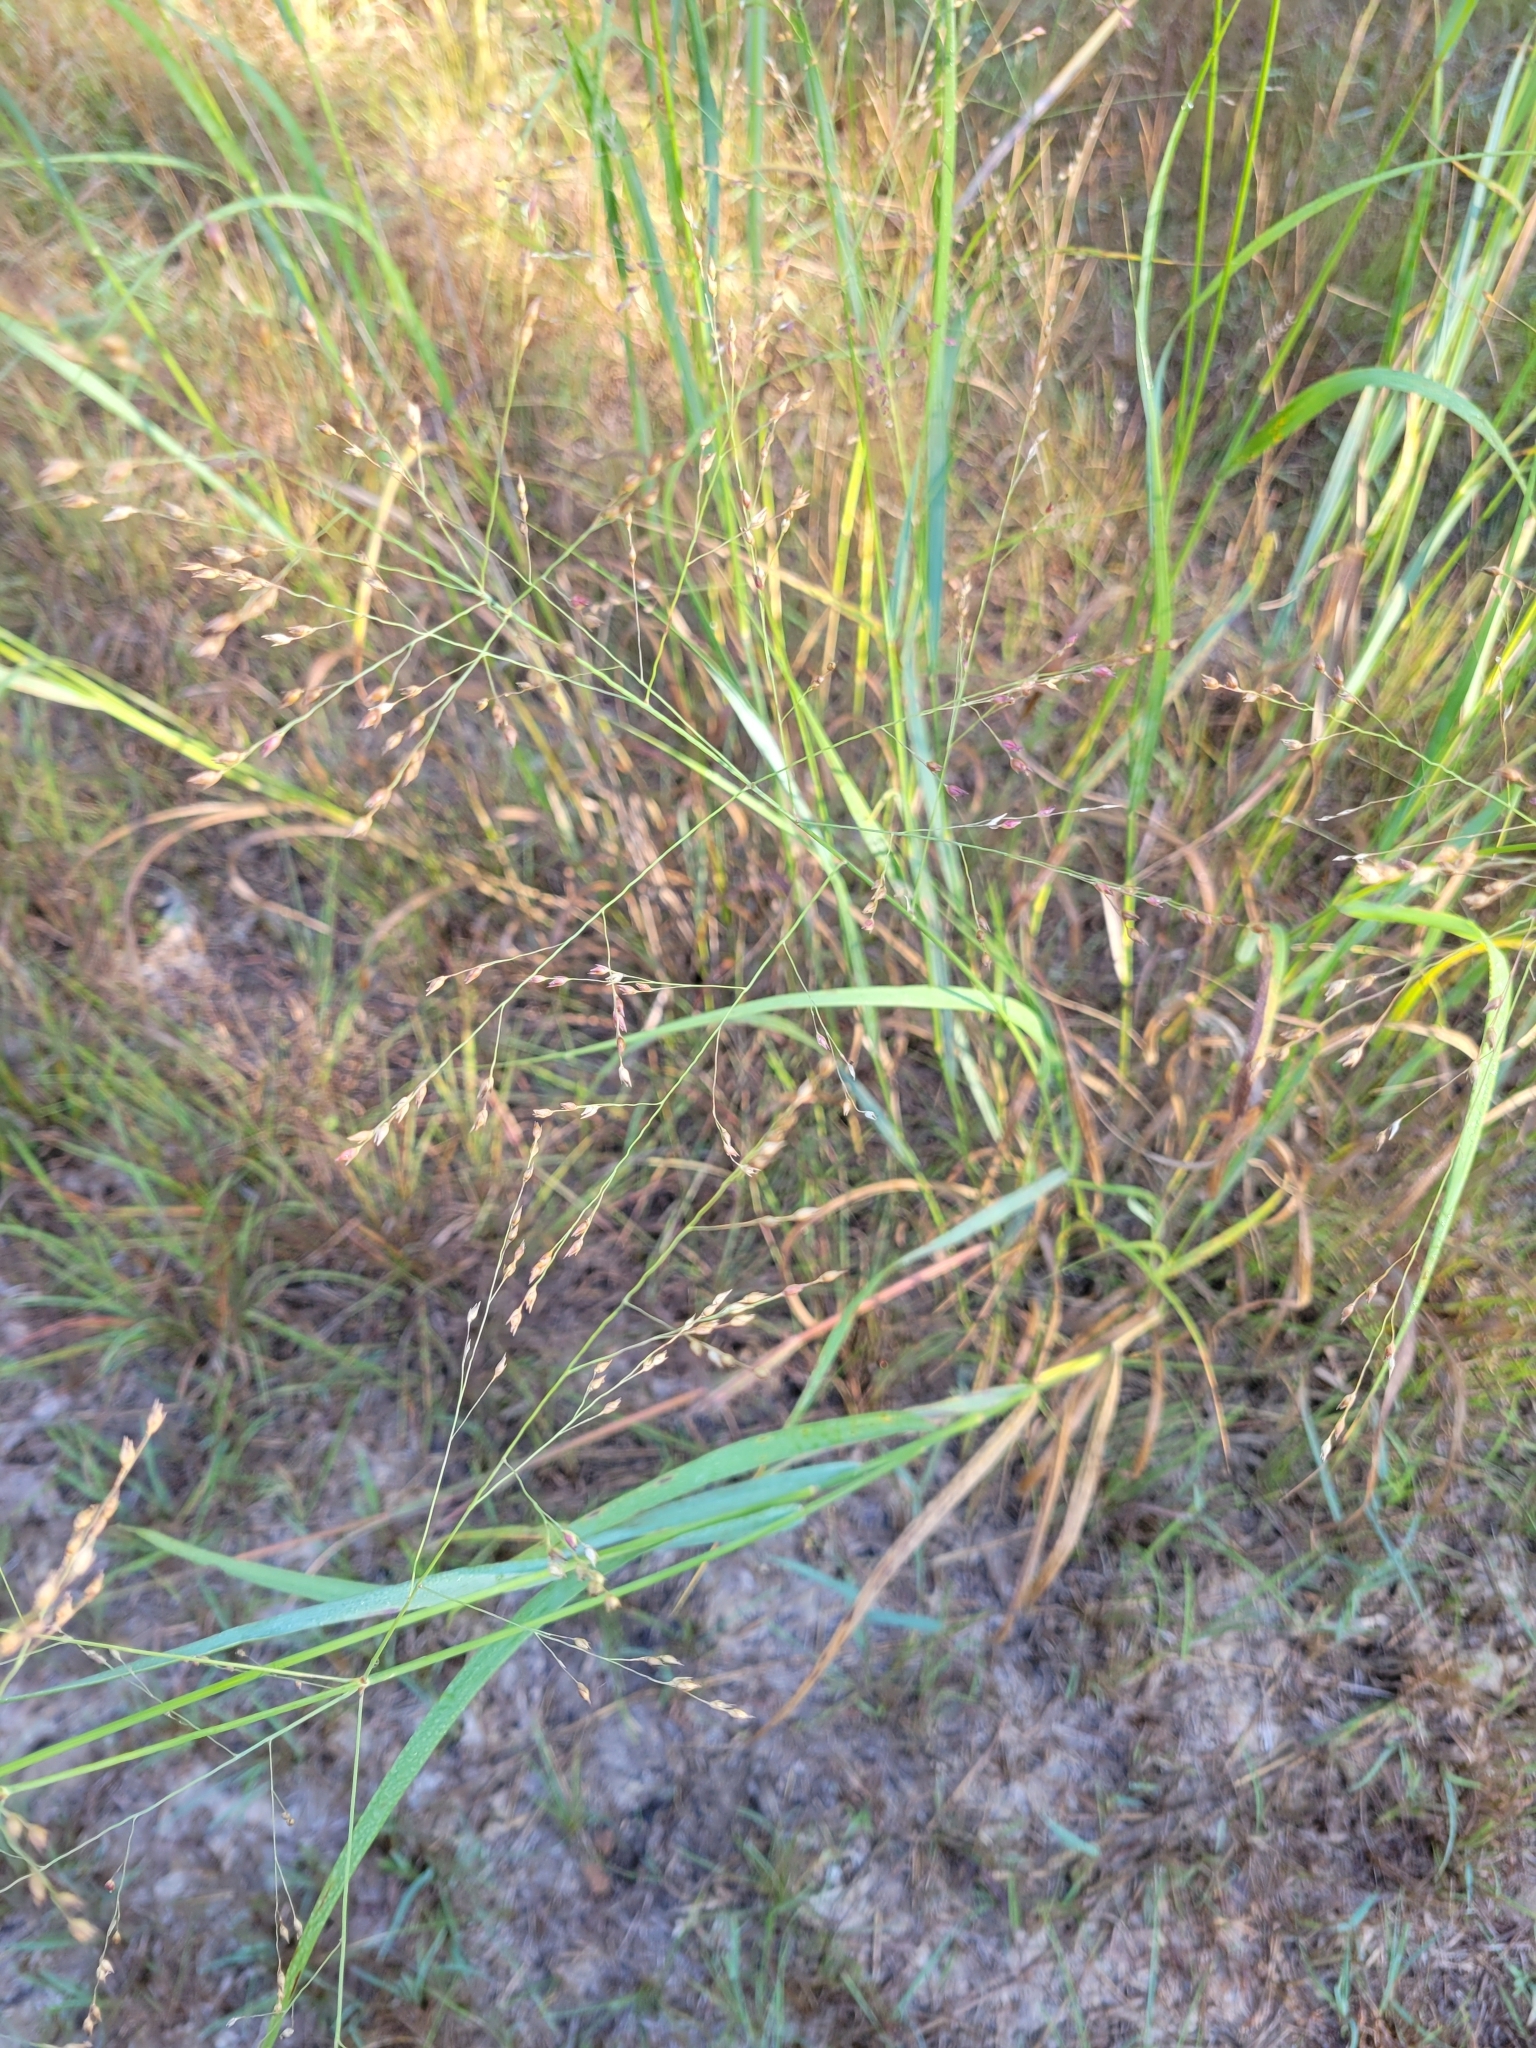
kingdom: Plantae
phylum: Tracheophyta
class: Liliopsida
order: Poales
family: Poaceae
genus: Panicum
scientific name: Panicum virgatum
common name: Switchgrass
